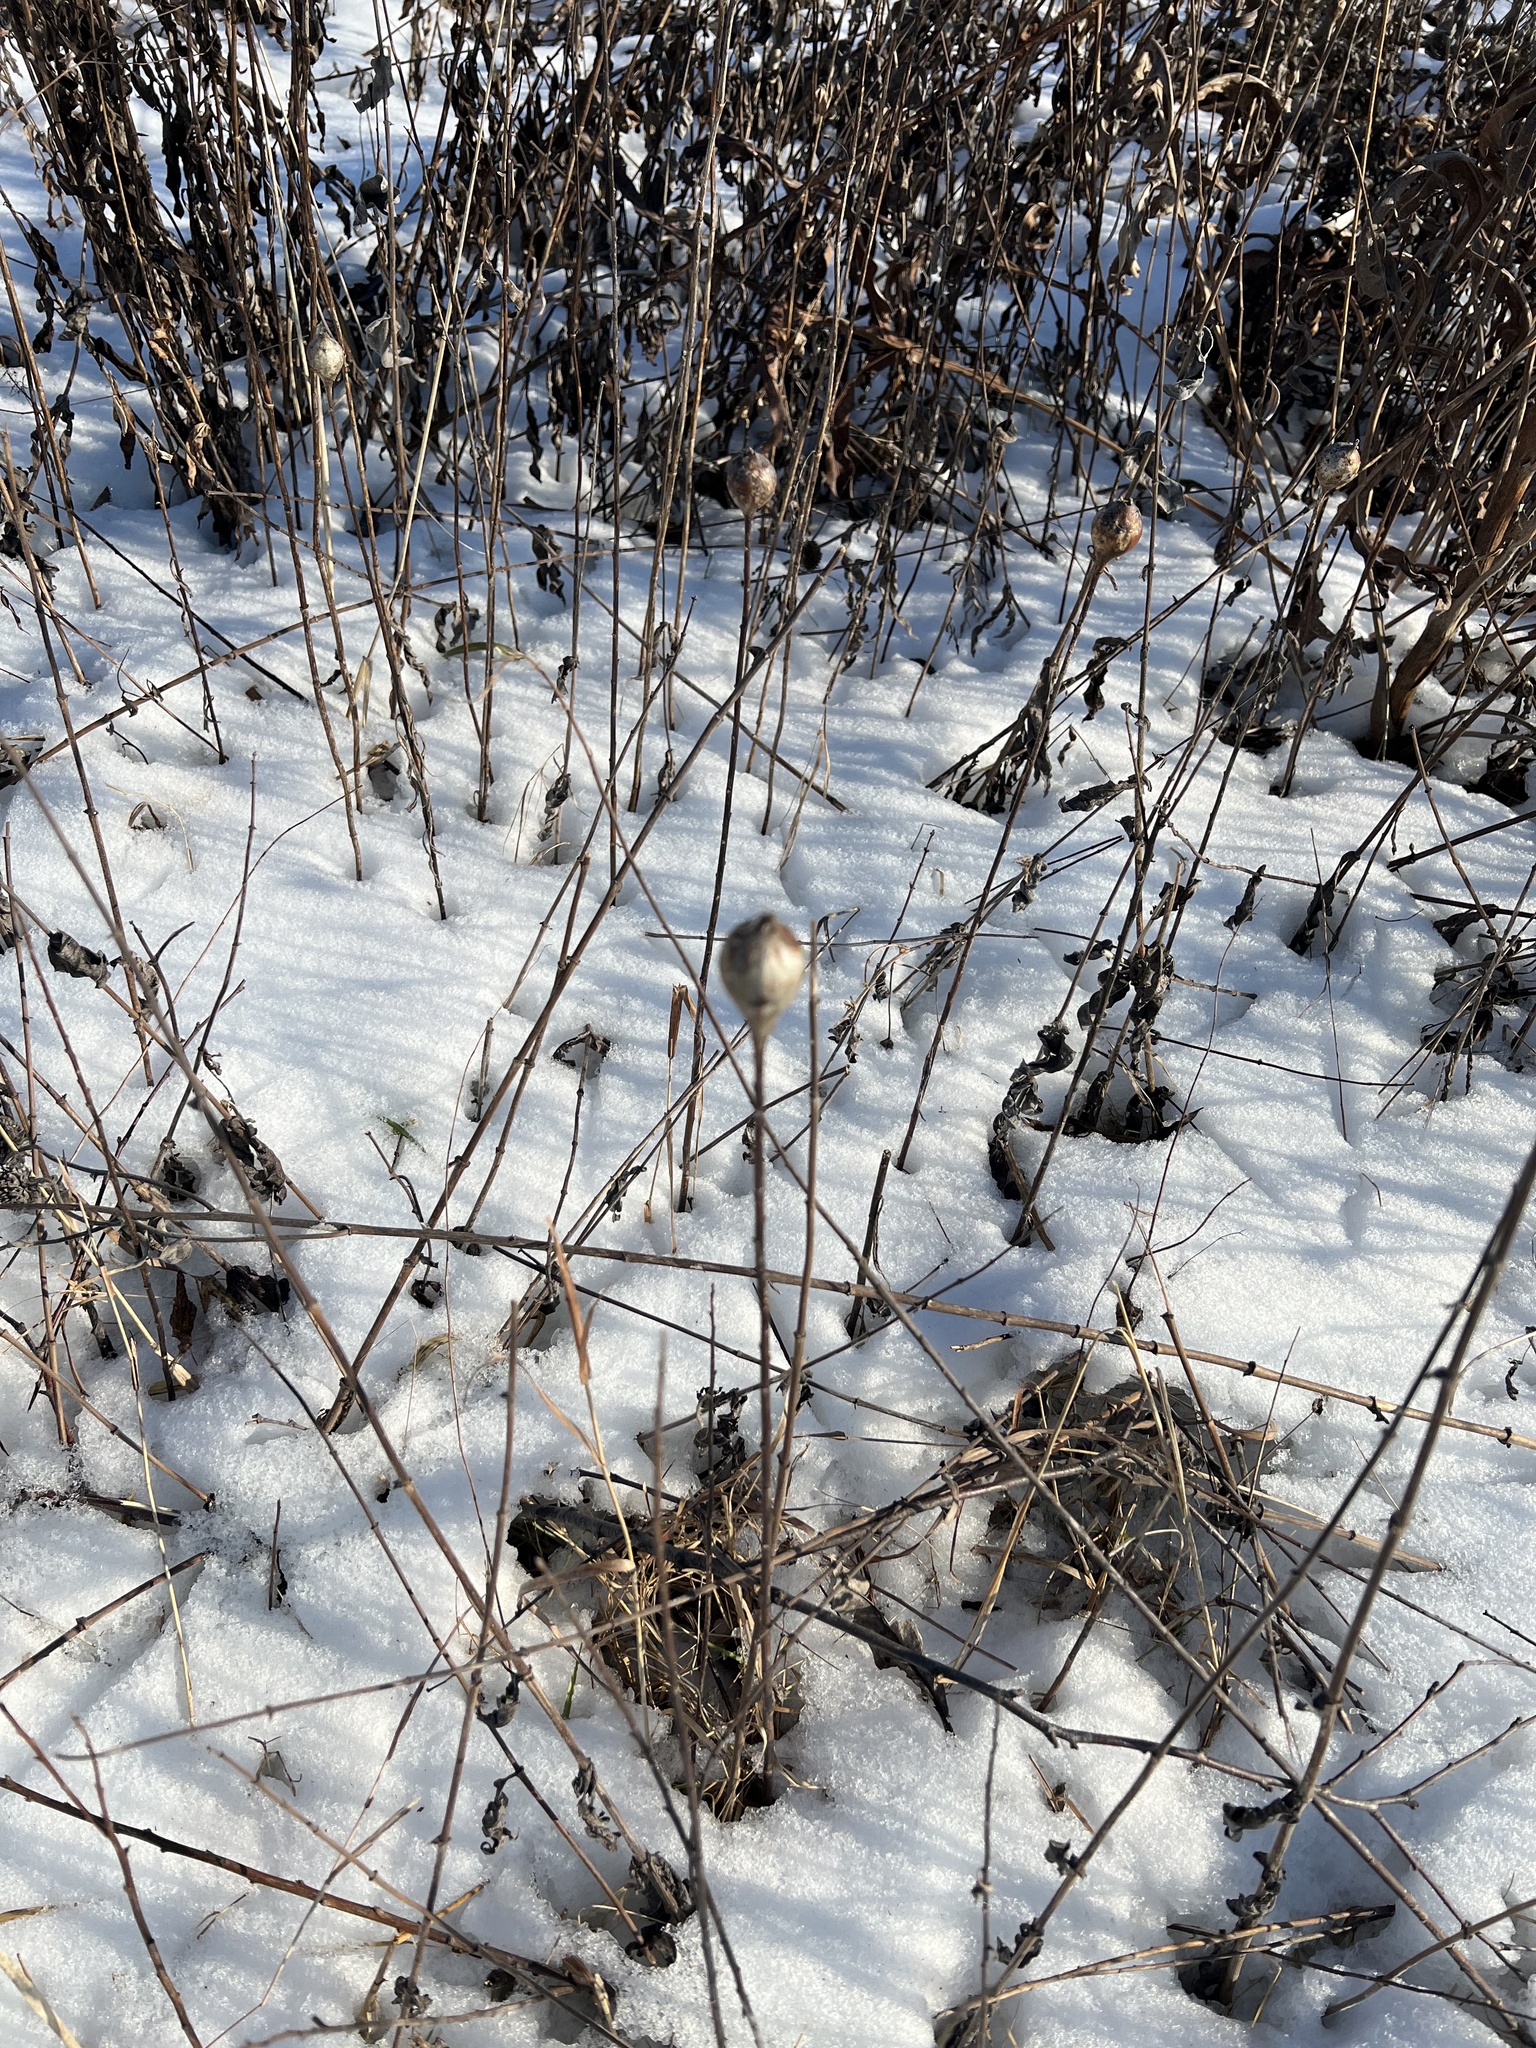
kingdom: Animalia
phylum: Arthropoda
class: Insecta
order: Diptera
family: Tephritidae
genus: Eurosta
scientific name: Eurosta solidaginis
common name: Goldenrod gall fly
